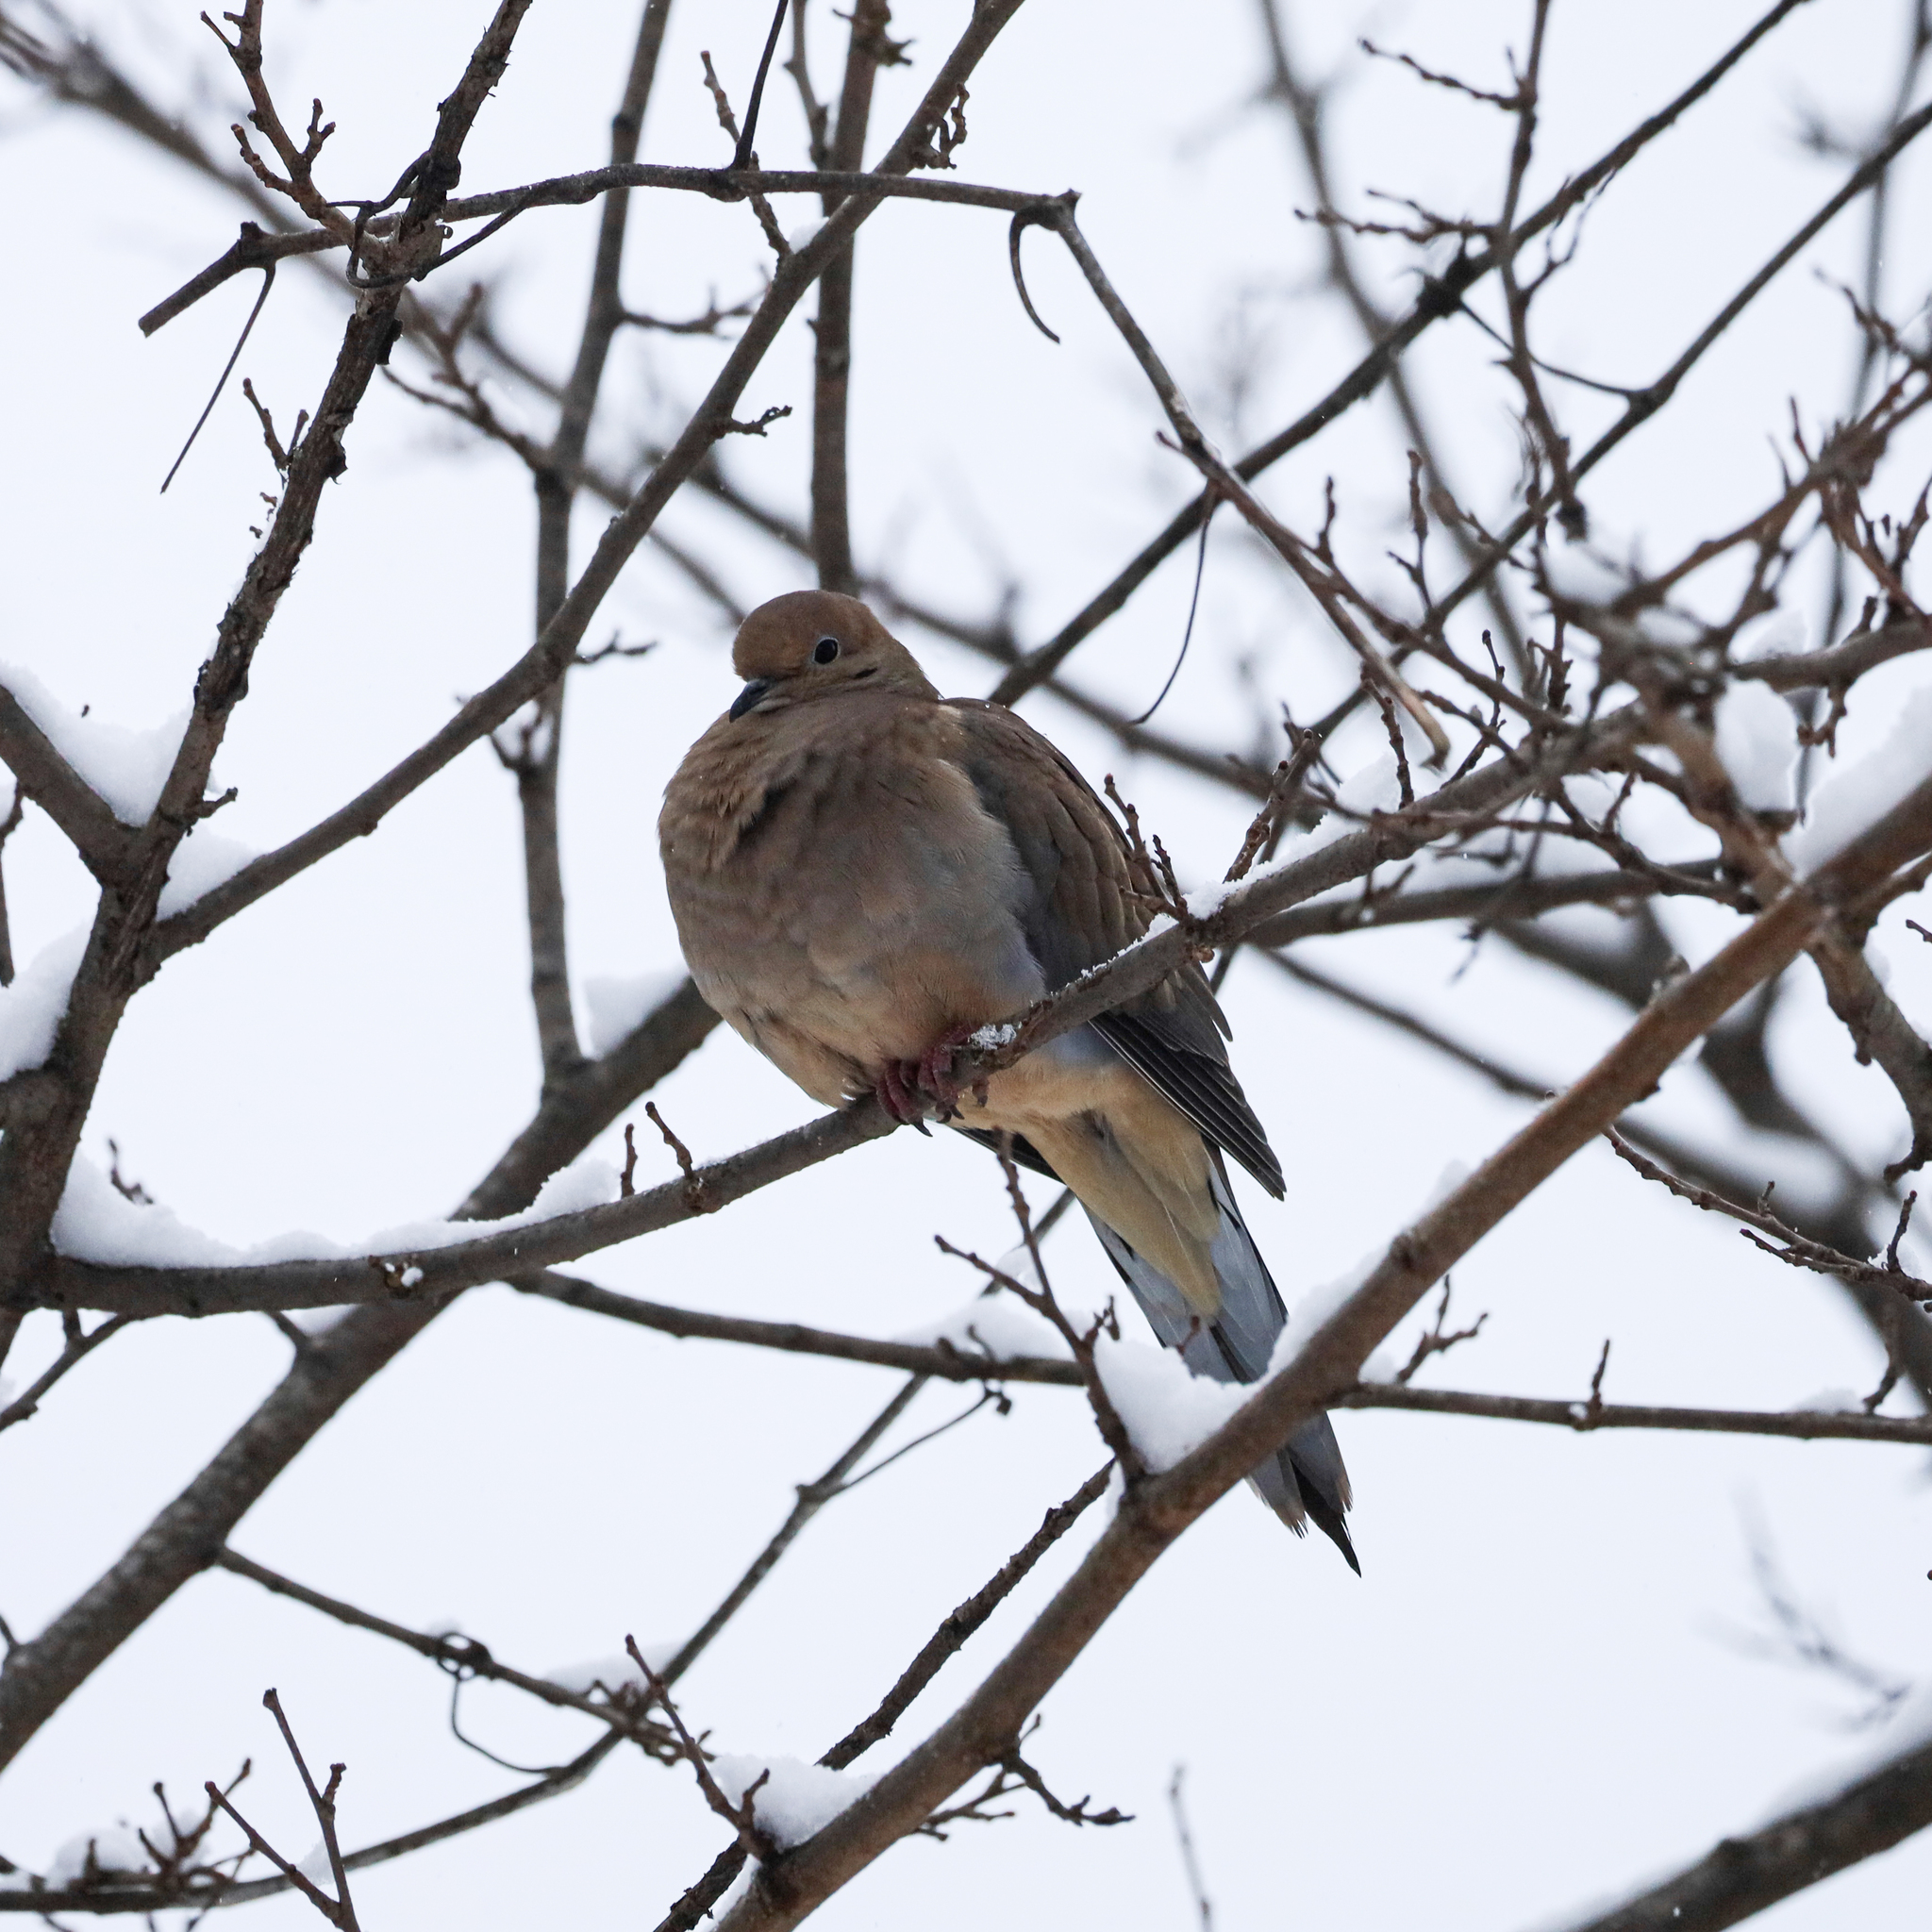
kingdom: Animalia
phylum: Chordata
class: Aves
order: Columbiformes
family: Columbidae
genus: Zenaida
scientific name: Zenaida macroura
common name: Mourning dove
